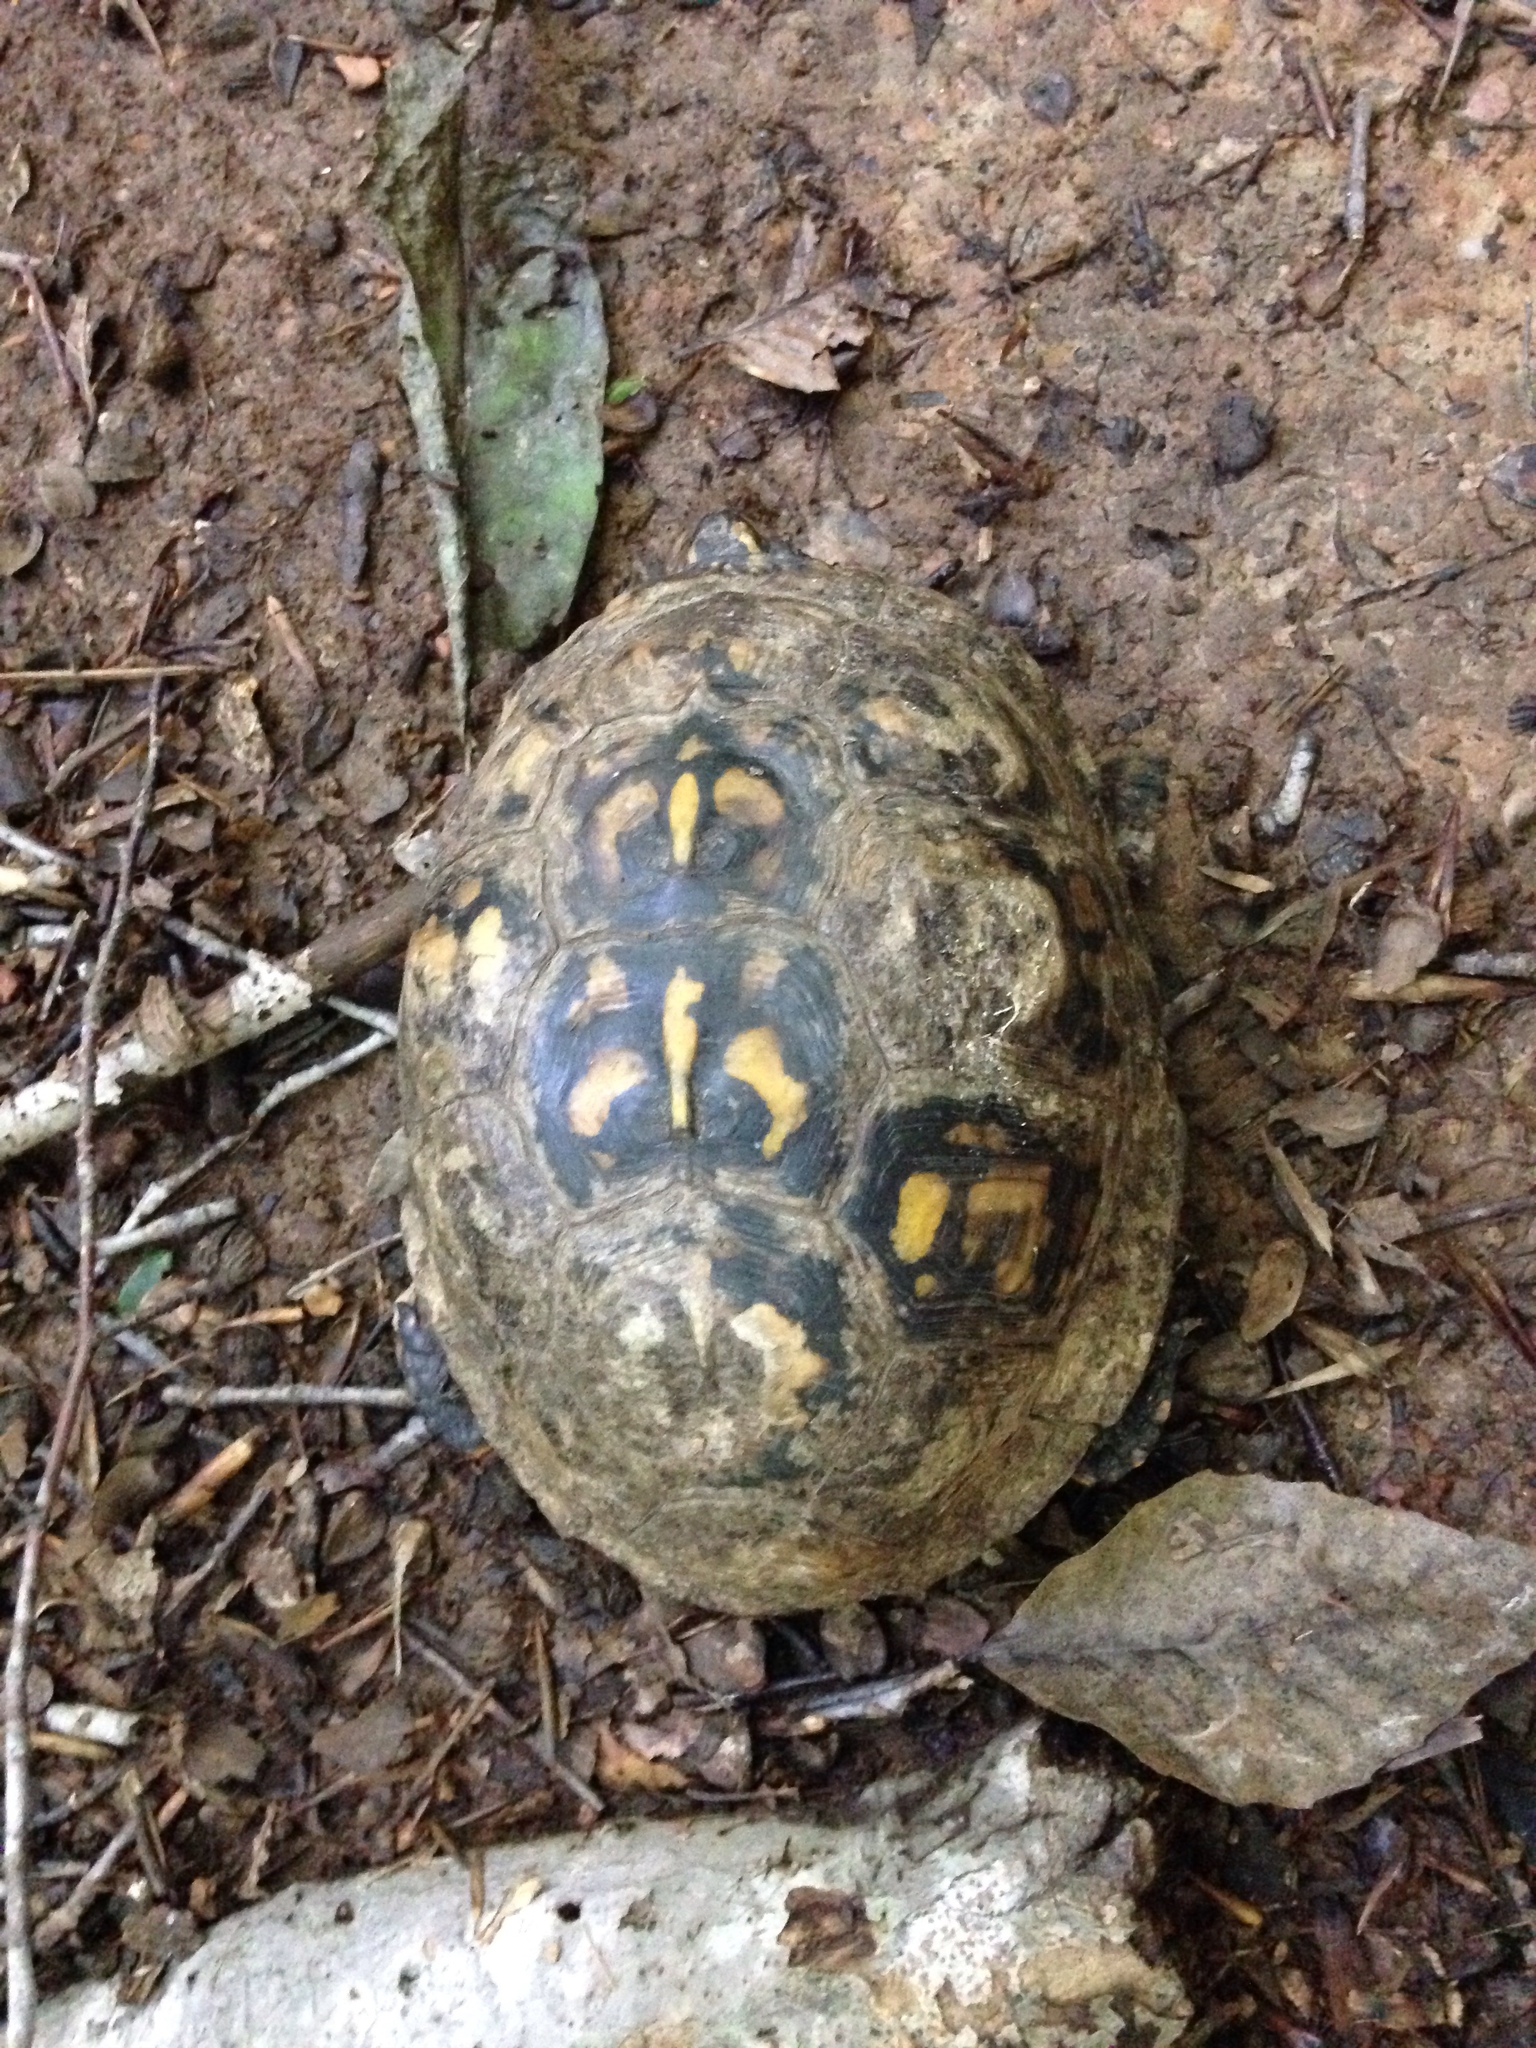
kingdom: Animalia
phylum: Chordata
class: Testudines
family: Emydidae
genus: Terrapene
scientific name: Terrapene carolina
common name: Common box turtle
